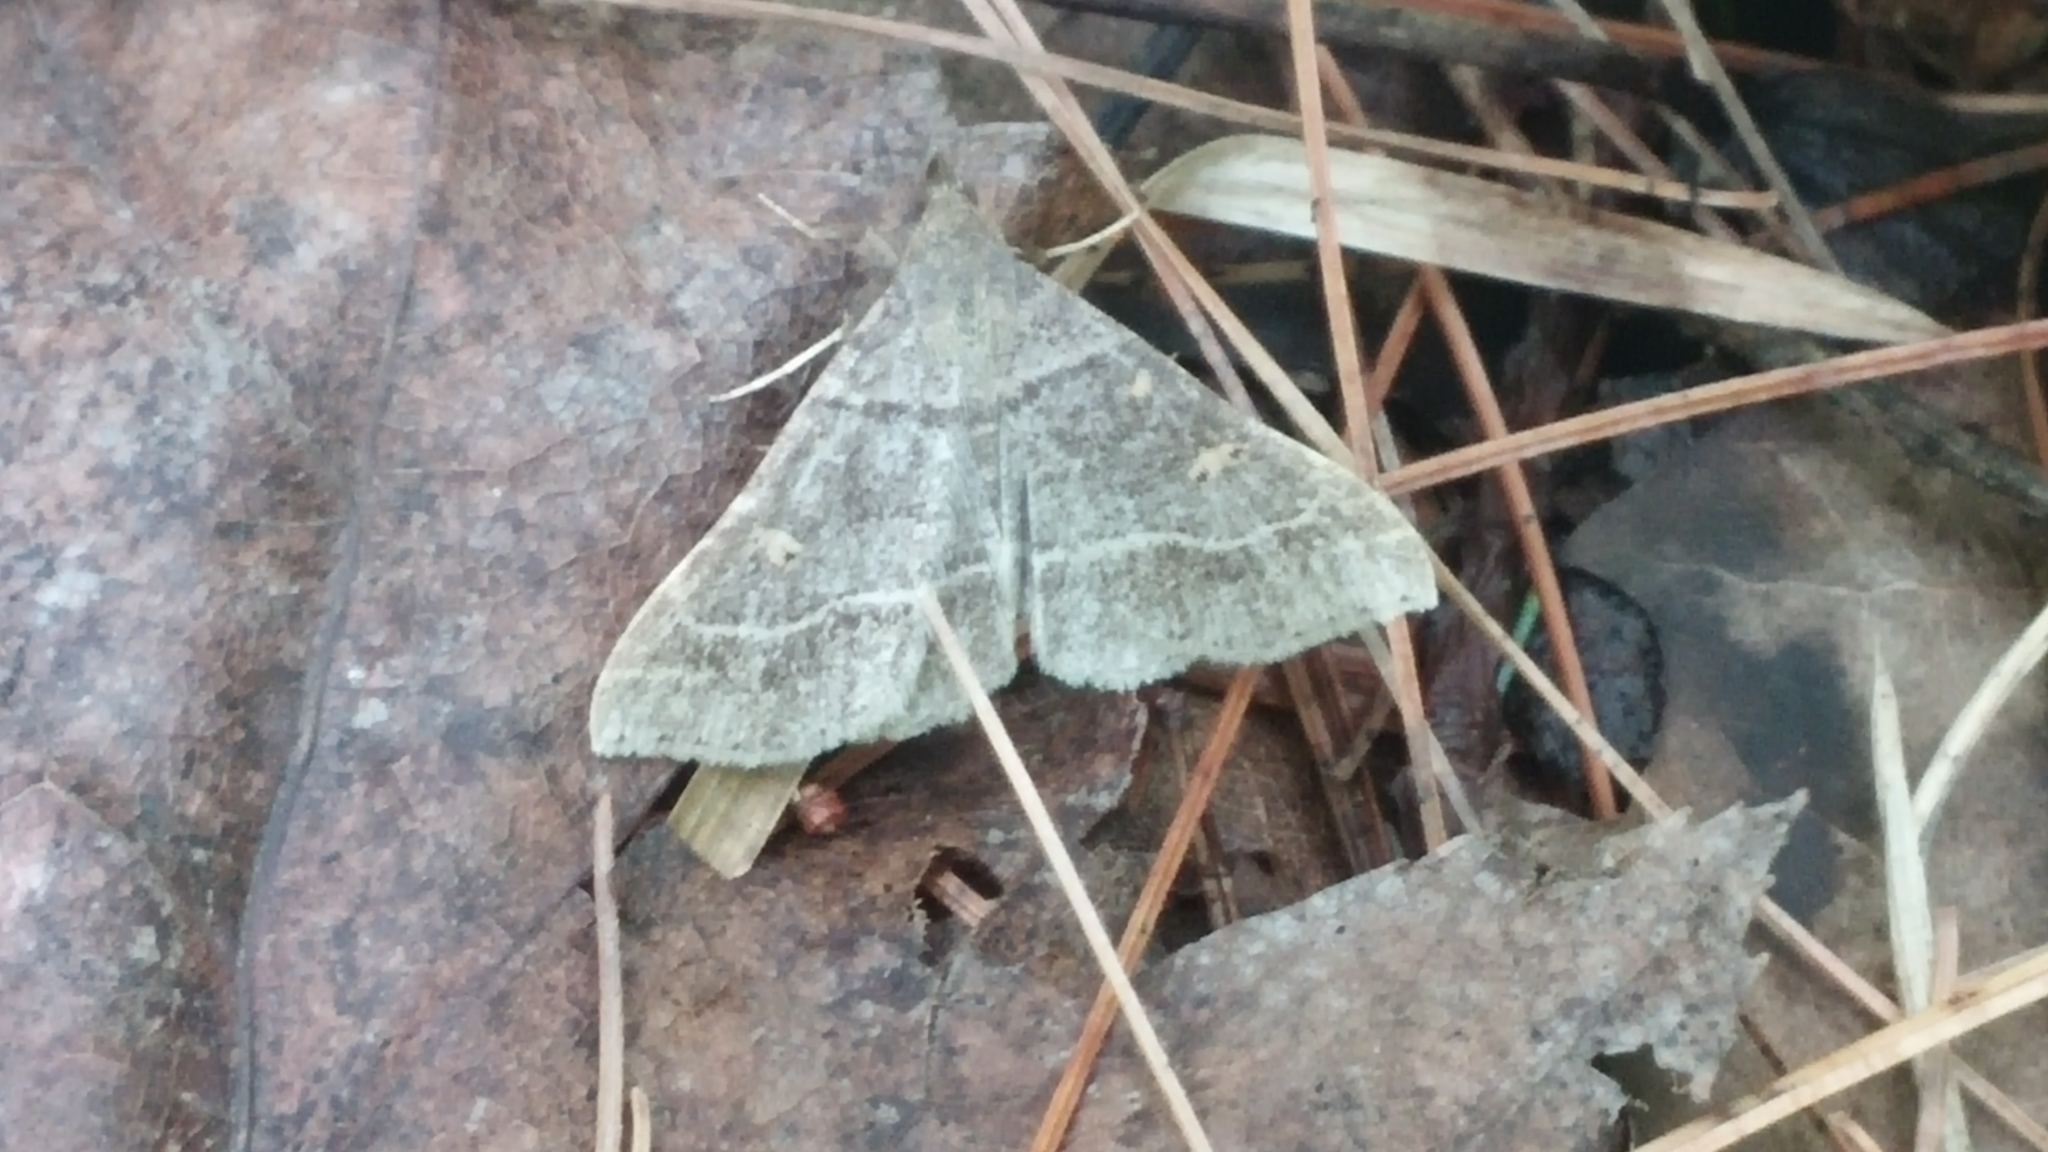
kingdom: Animalia
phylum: Arthropoda
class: Insecta
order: Lepidoptera
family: Erebidae
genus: Renia
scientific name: Renia flavipunctalis
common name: Yellow-spotted renia moth
